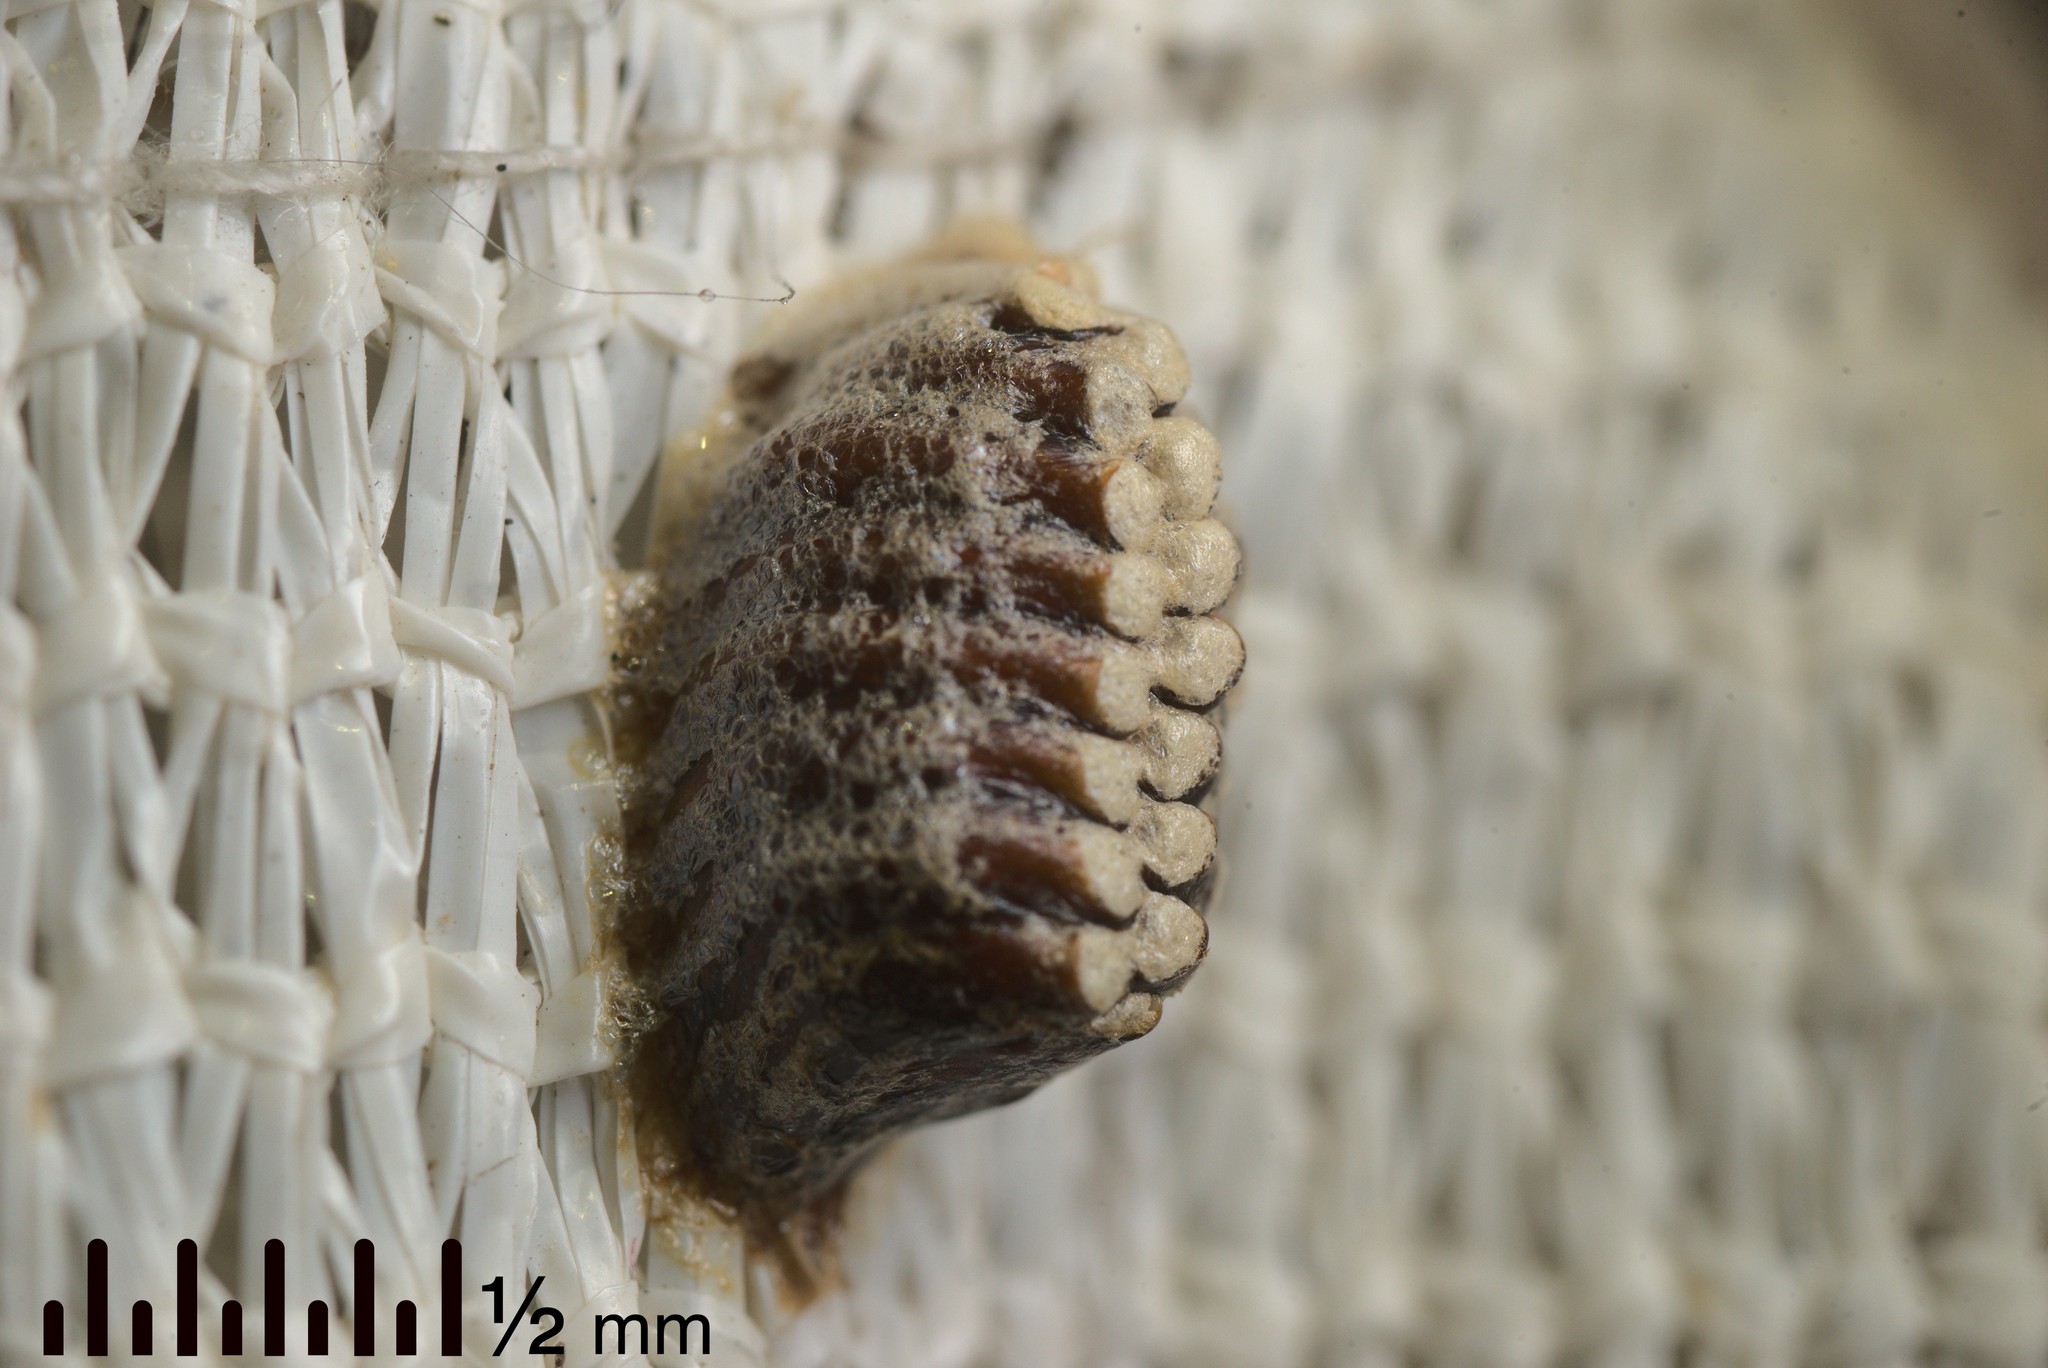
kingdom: Animalia
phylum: Arthropoda
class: Insecta
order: Mantodea
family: Mantidae
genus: Orthodera
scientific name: Orthodera novaezealandiae
